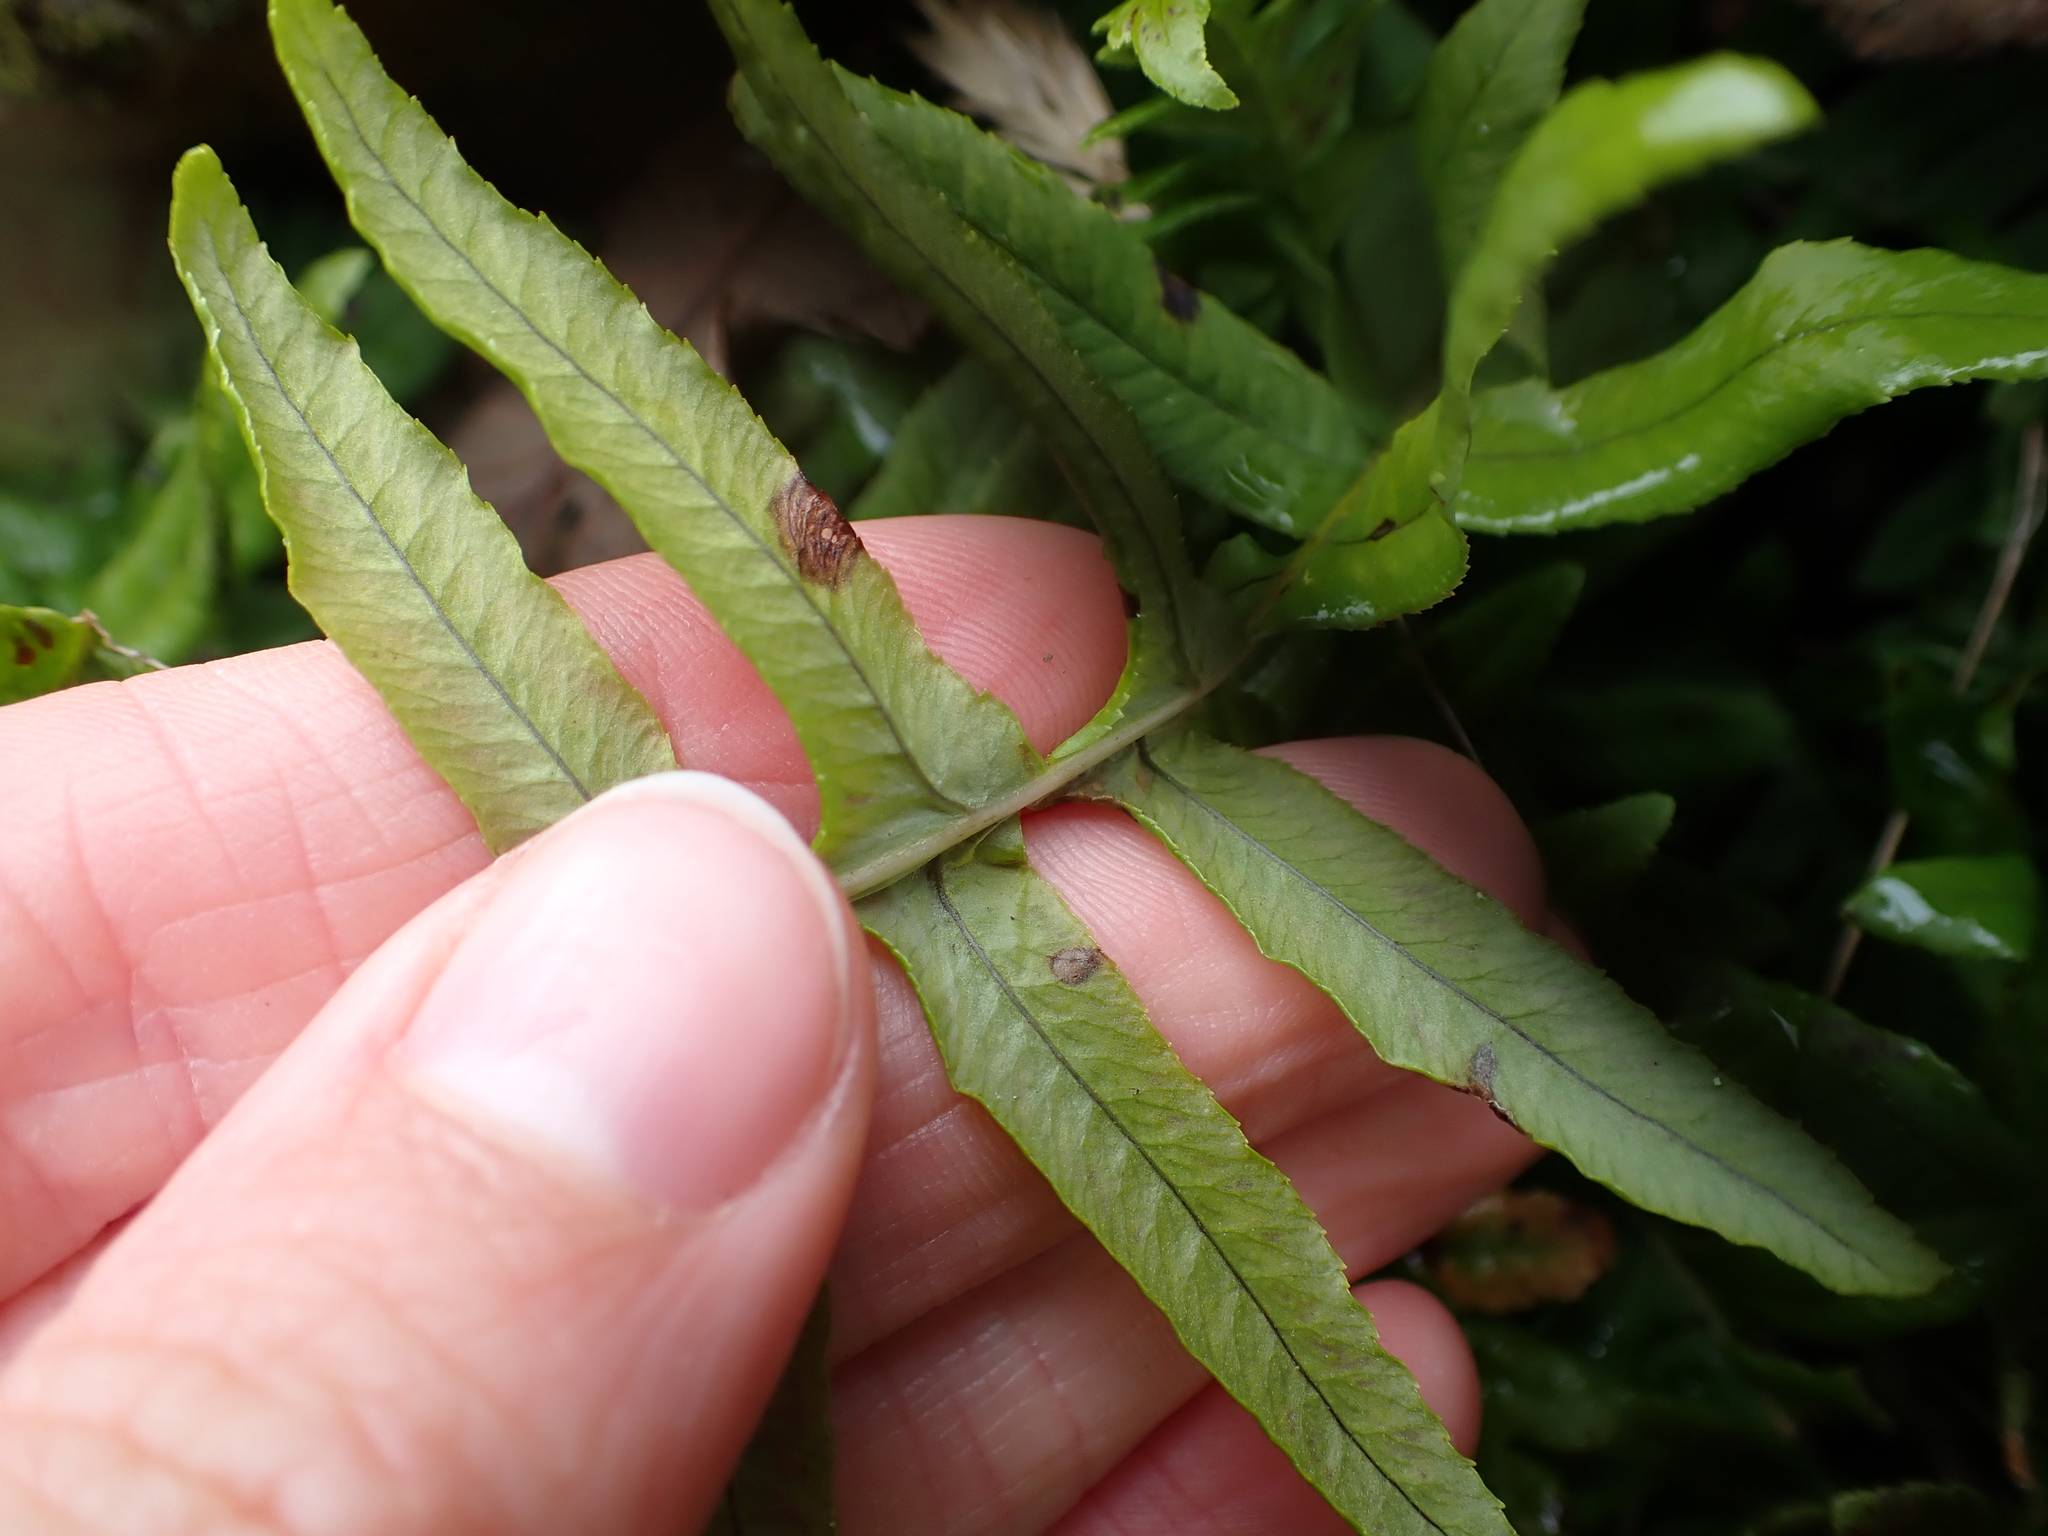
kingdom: Plantae
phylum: Tracheophyta
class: Polypodiopsida
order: Polypodiales
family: Polypodiaceae
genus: Polypodium
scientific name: Polypodium glycyrrhiza
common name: Licorice fern
